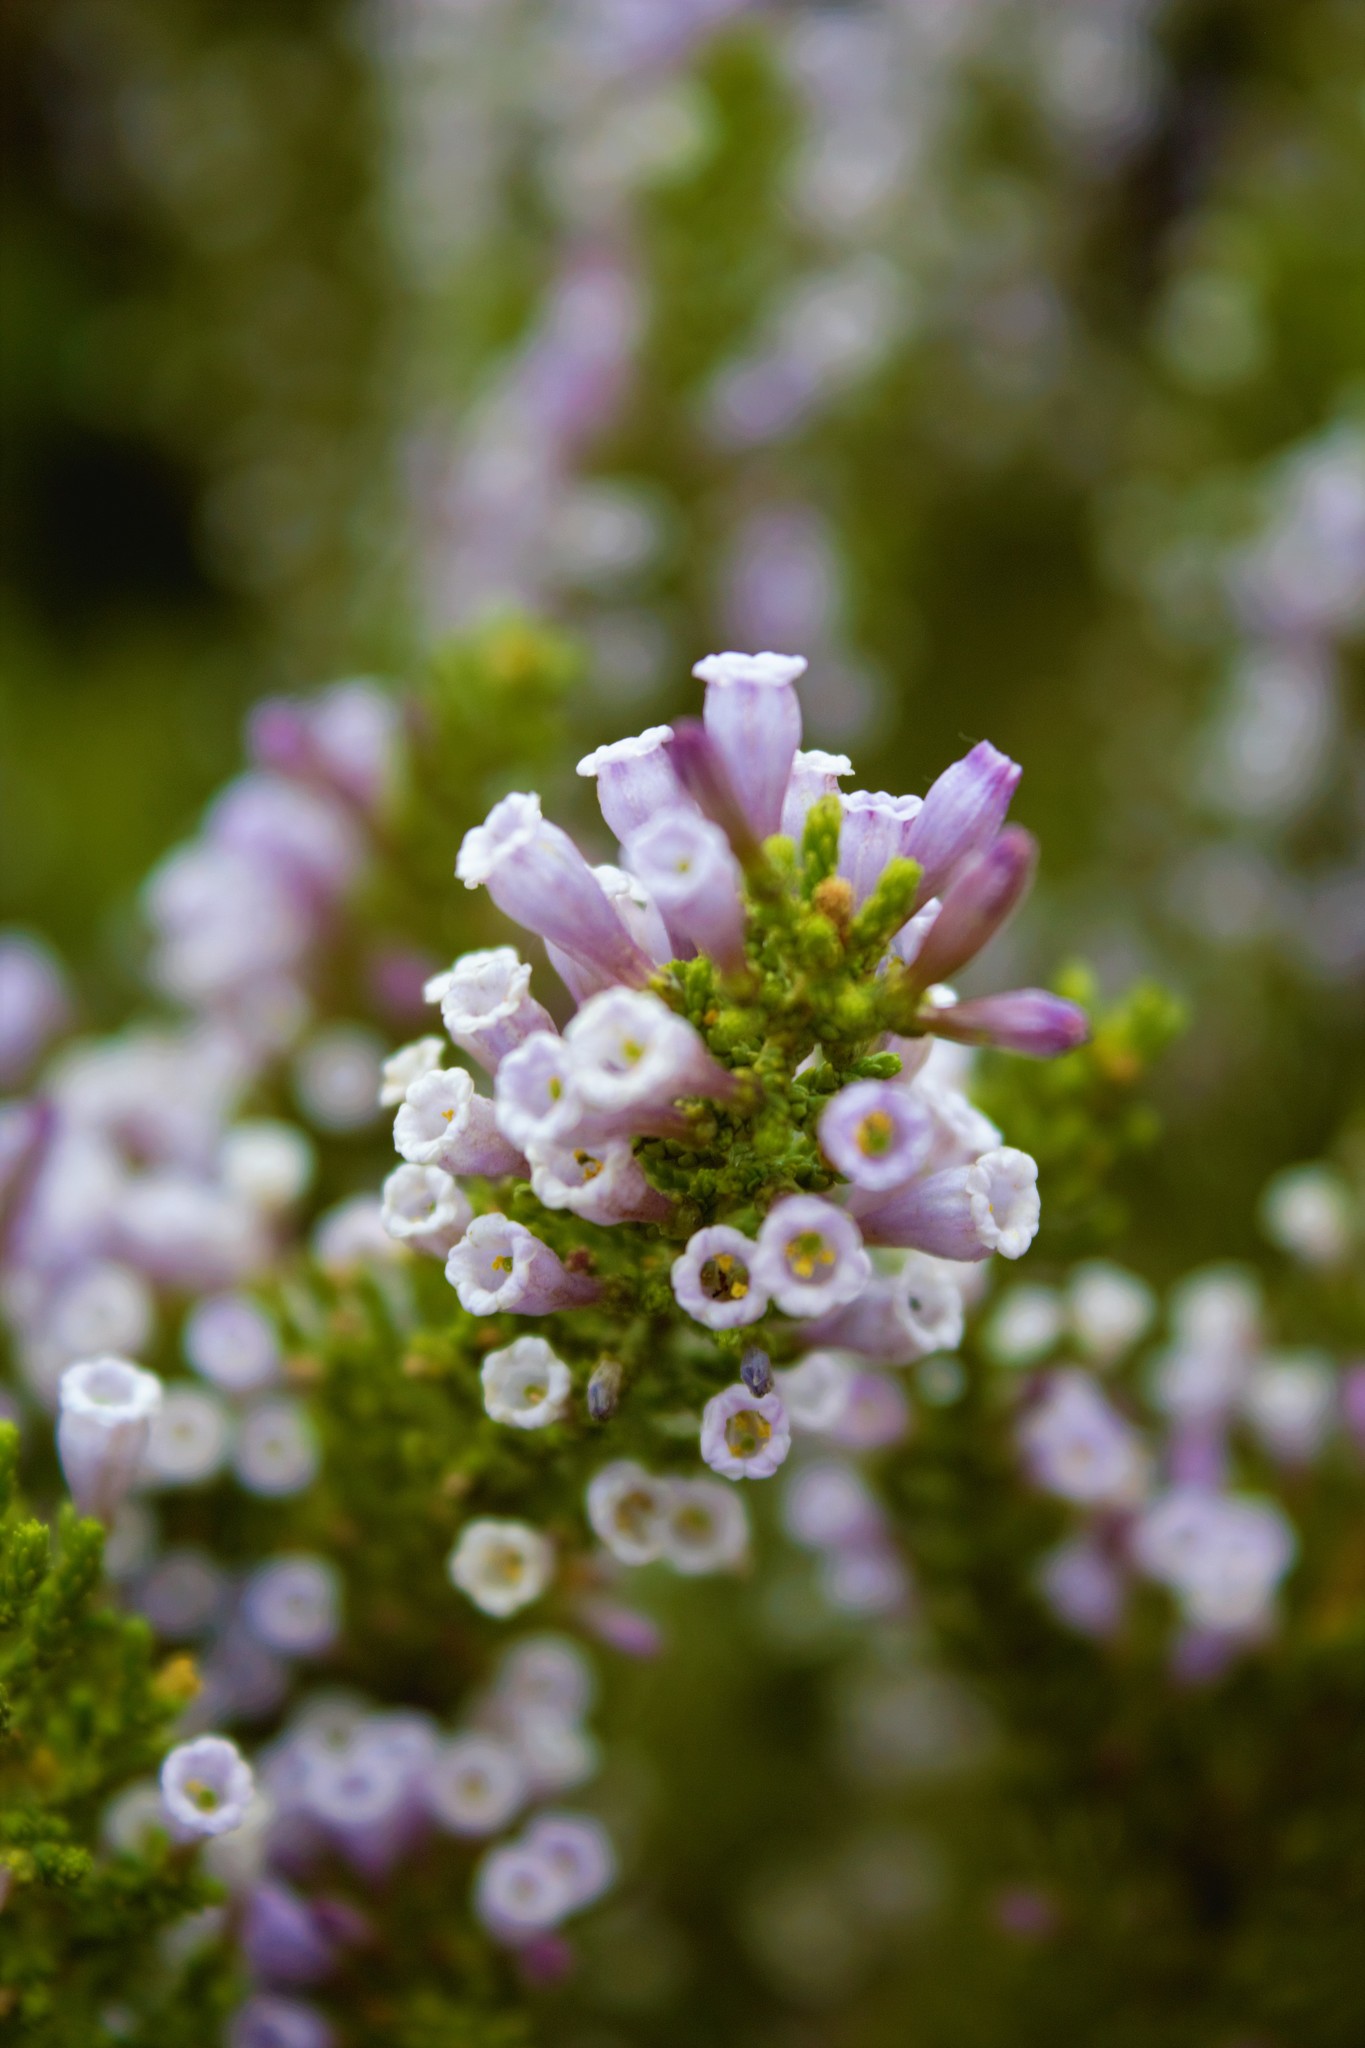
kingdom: Plantae
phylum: Tracheophyta
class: Magnoliopsida
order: Solanales
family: Solanaceae
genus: Fabiana
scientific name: Fabiana imbricata
